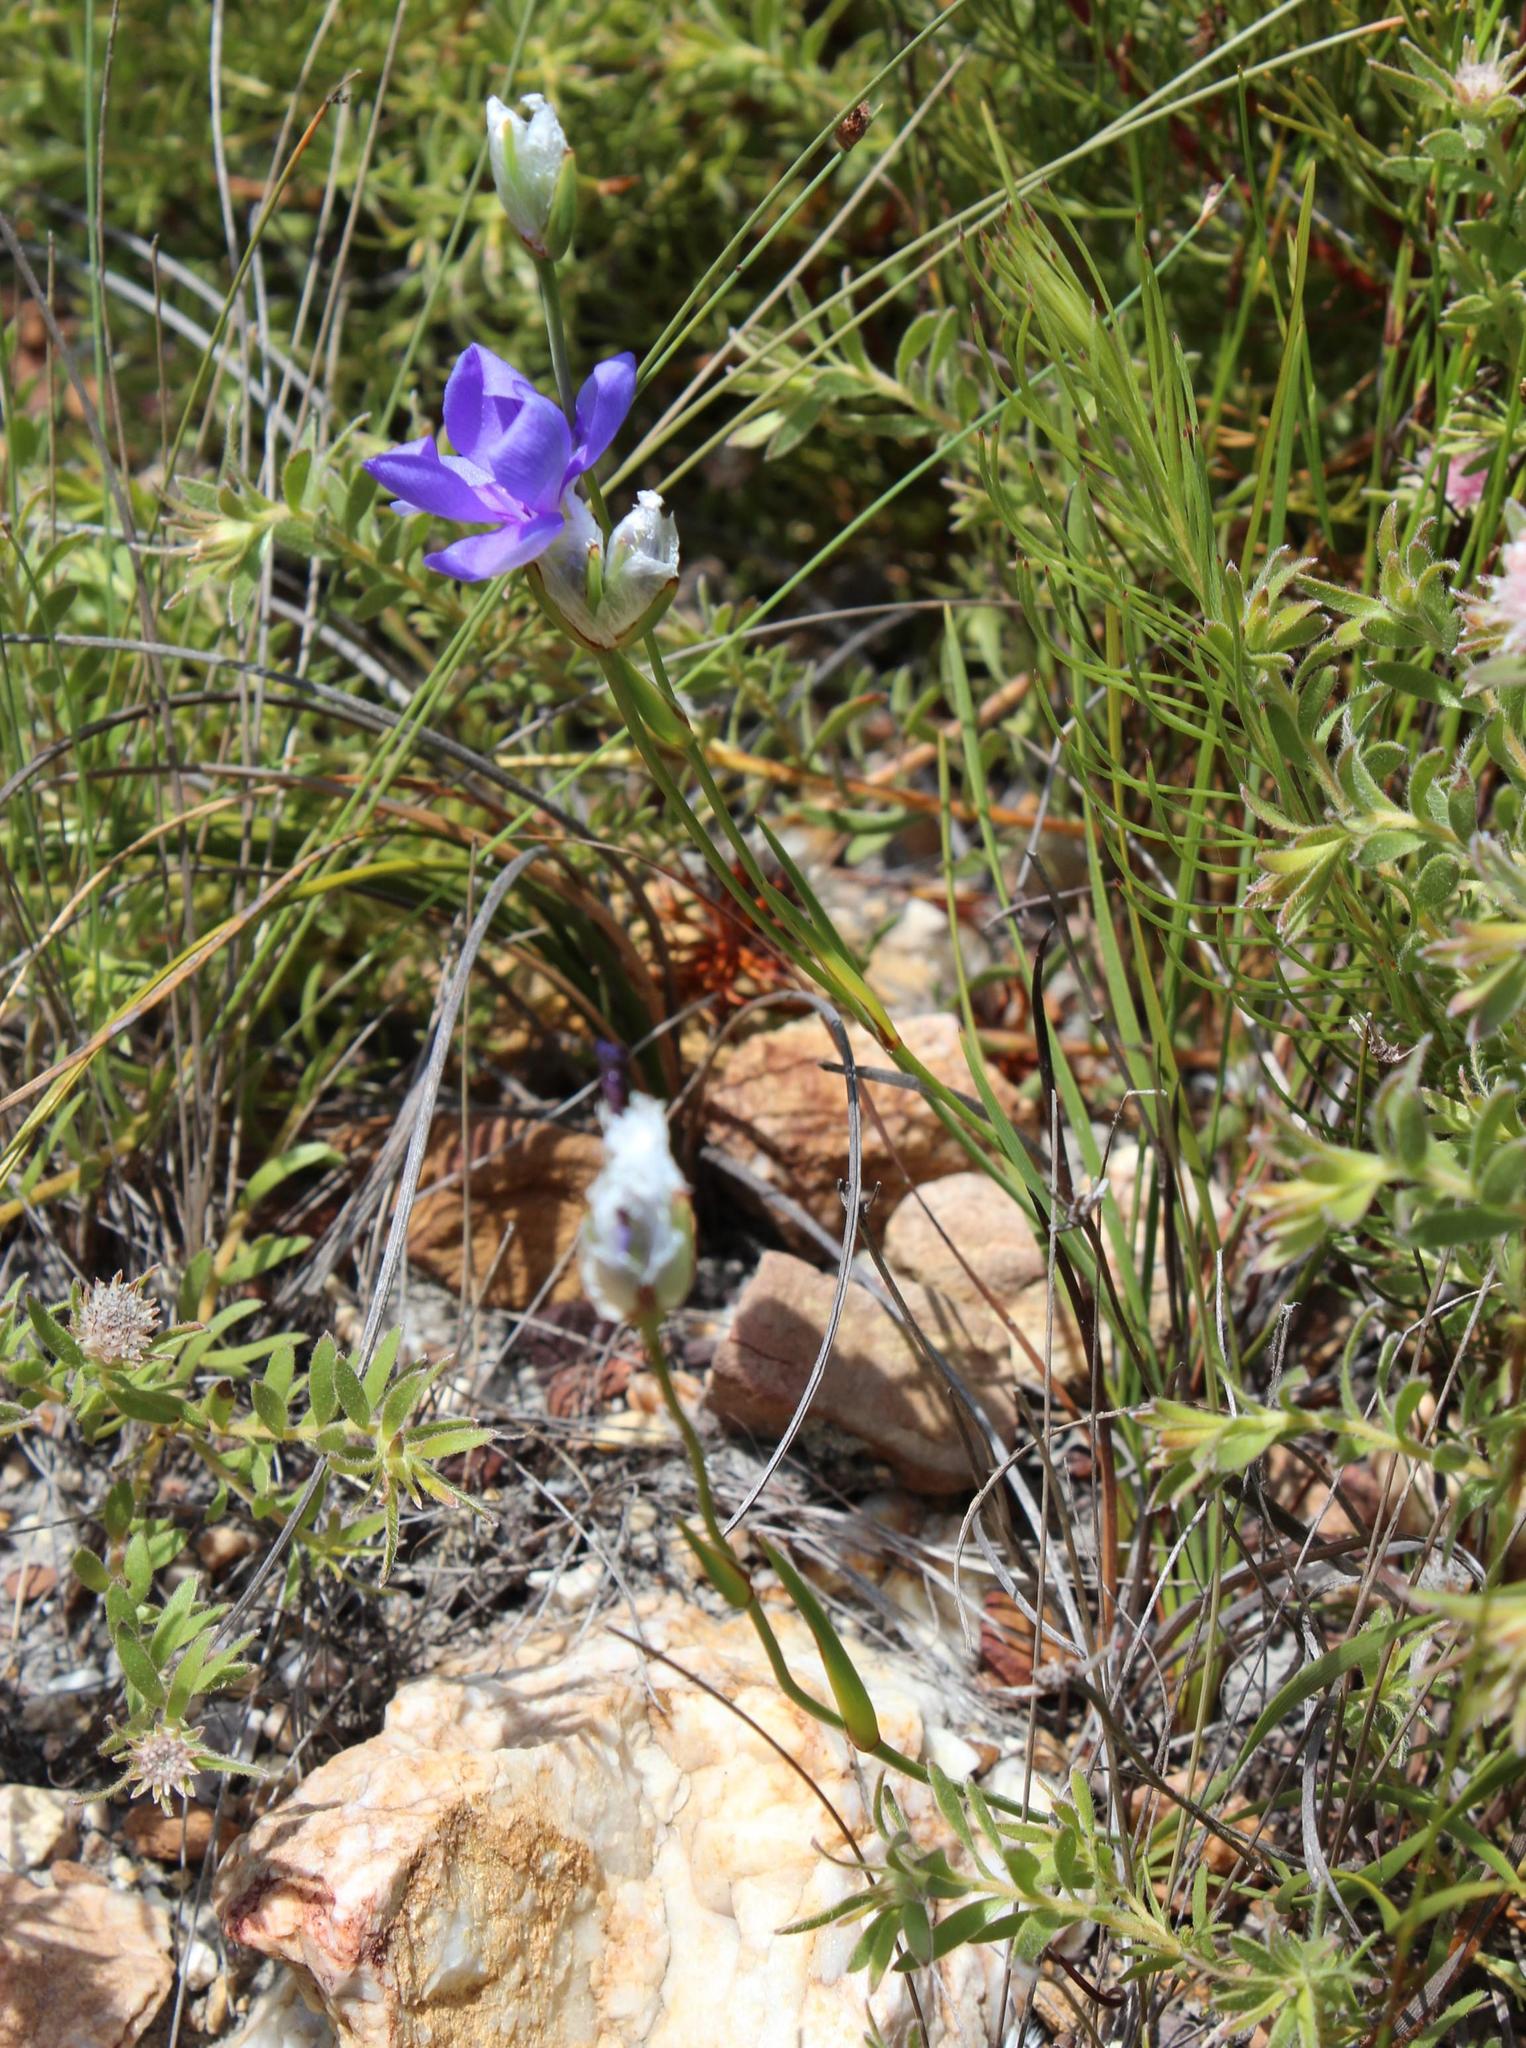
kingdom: Plantae
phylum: Tracheophyta
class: Liliopsida
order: Asparagales
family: Iridaceae
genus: Aristea
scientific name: Aristea oligocephala
